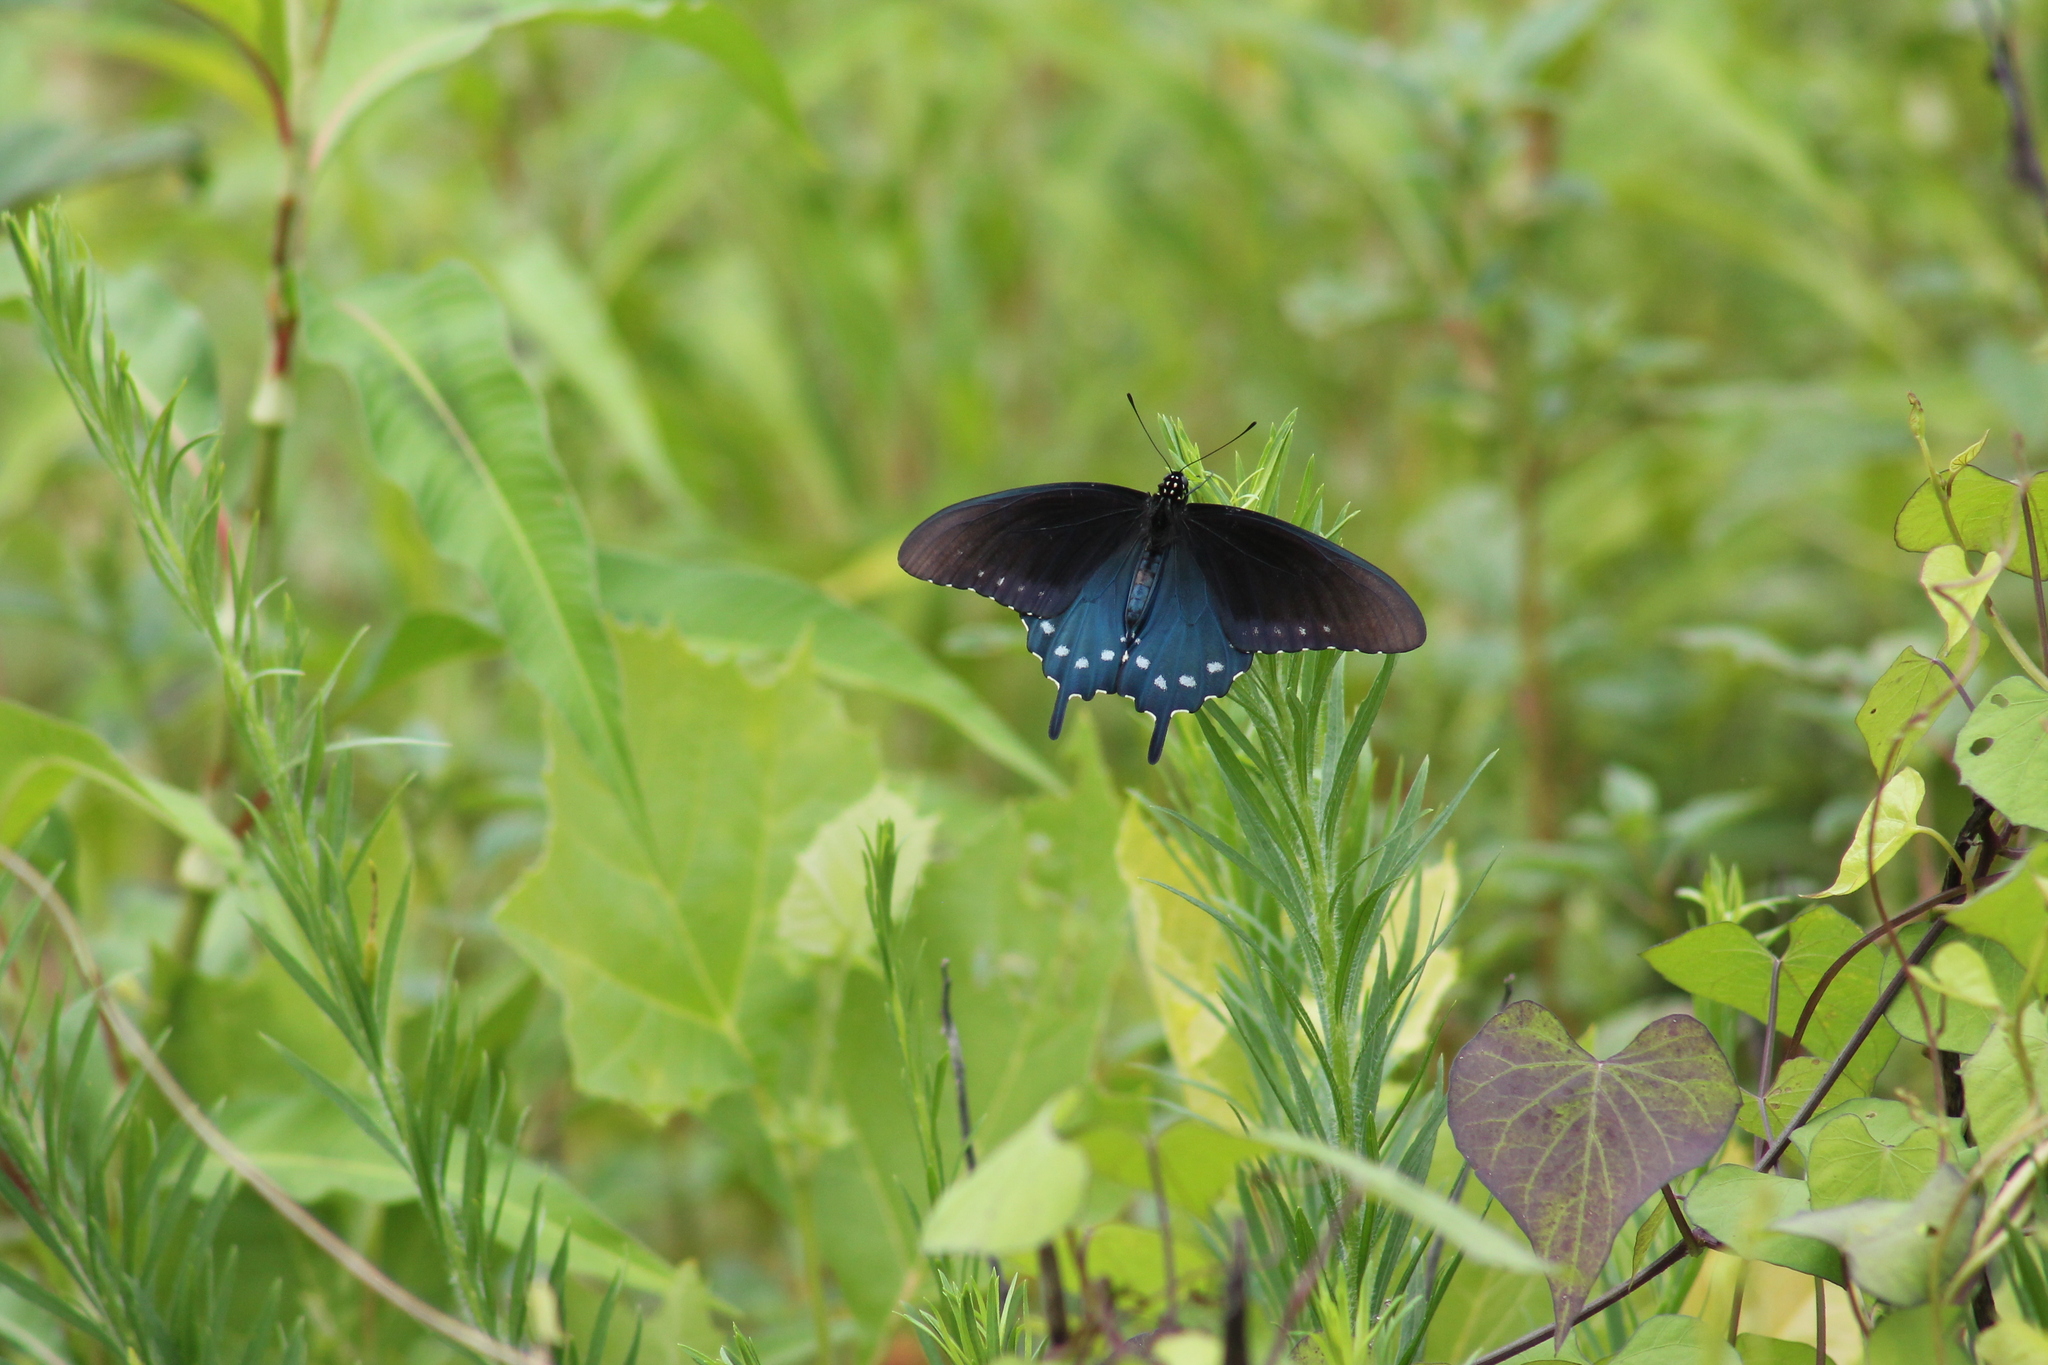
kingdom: Animalia
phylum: Arthropoda
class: Insecta
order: Lepidoptera
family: Papilionidae
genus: Battus
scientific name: Battus philenor
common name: Pipevine swallowtail
